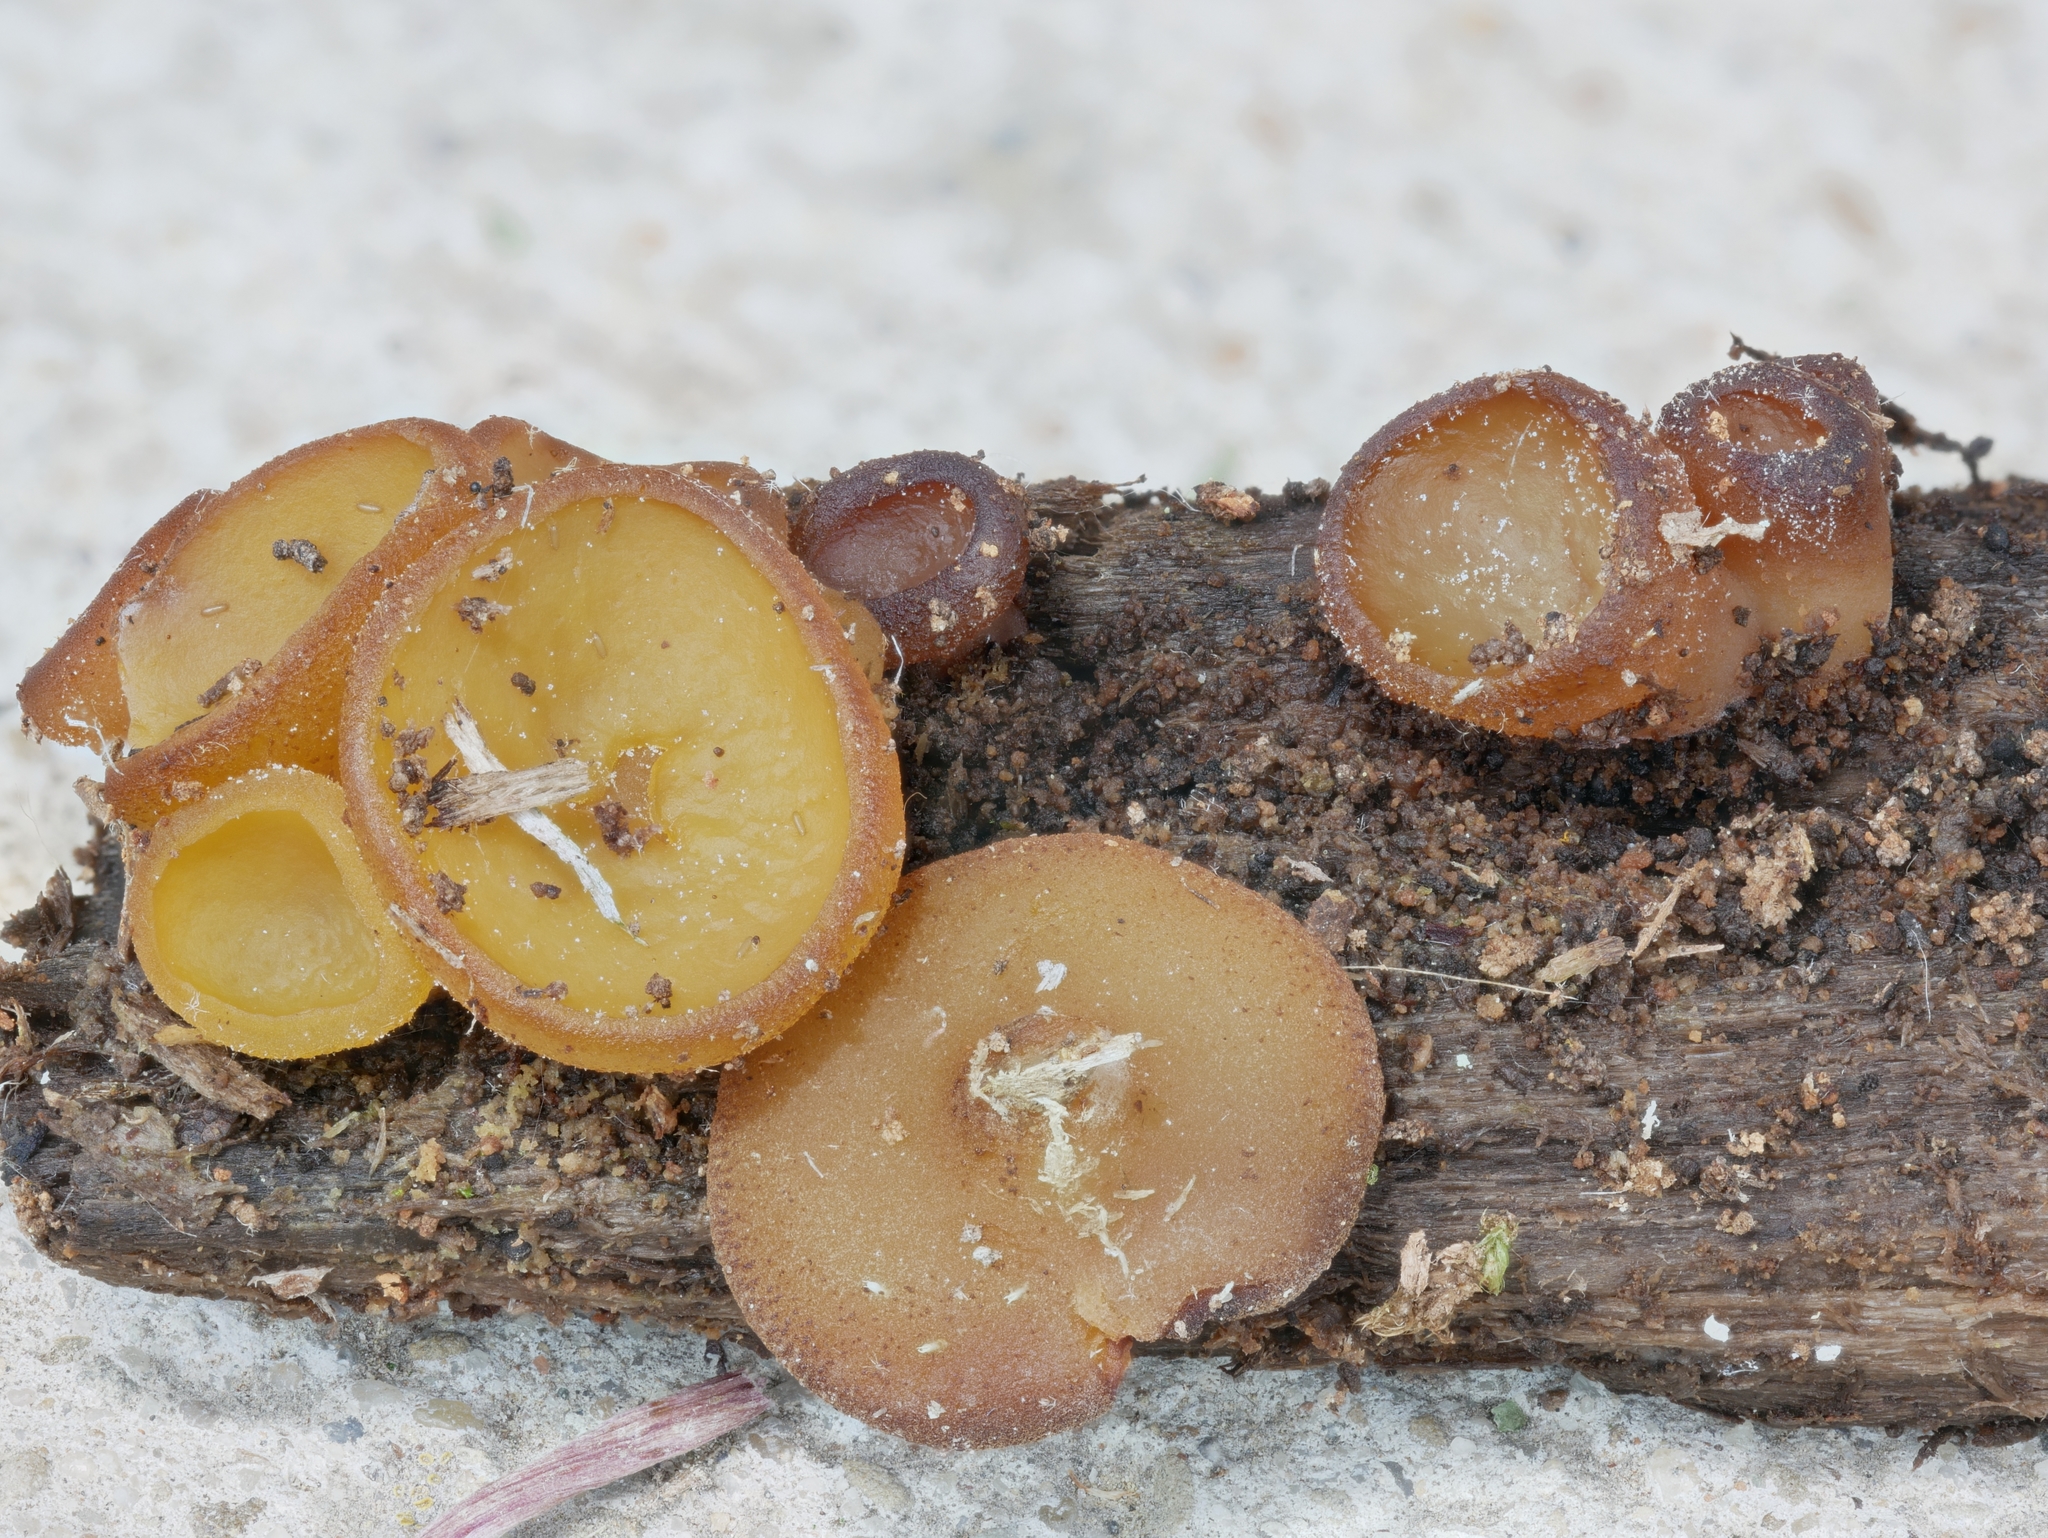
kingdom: Fungi
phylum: Ascomycota
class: Pezizomycetes
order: Pezizales
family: Pezizaceae
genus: Elaiopezia
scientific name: Elaiopezia waltersii
